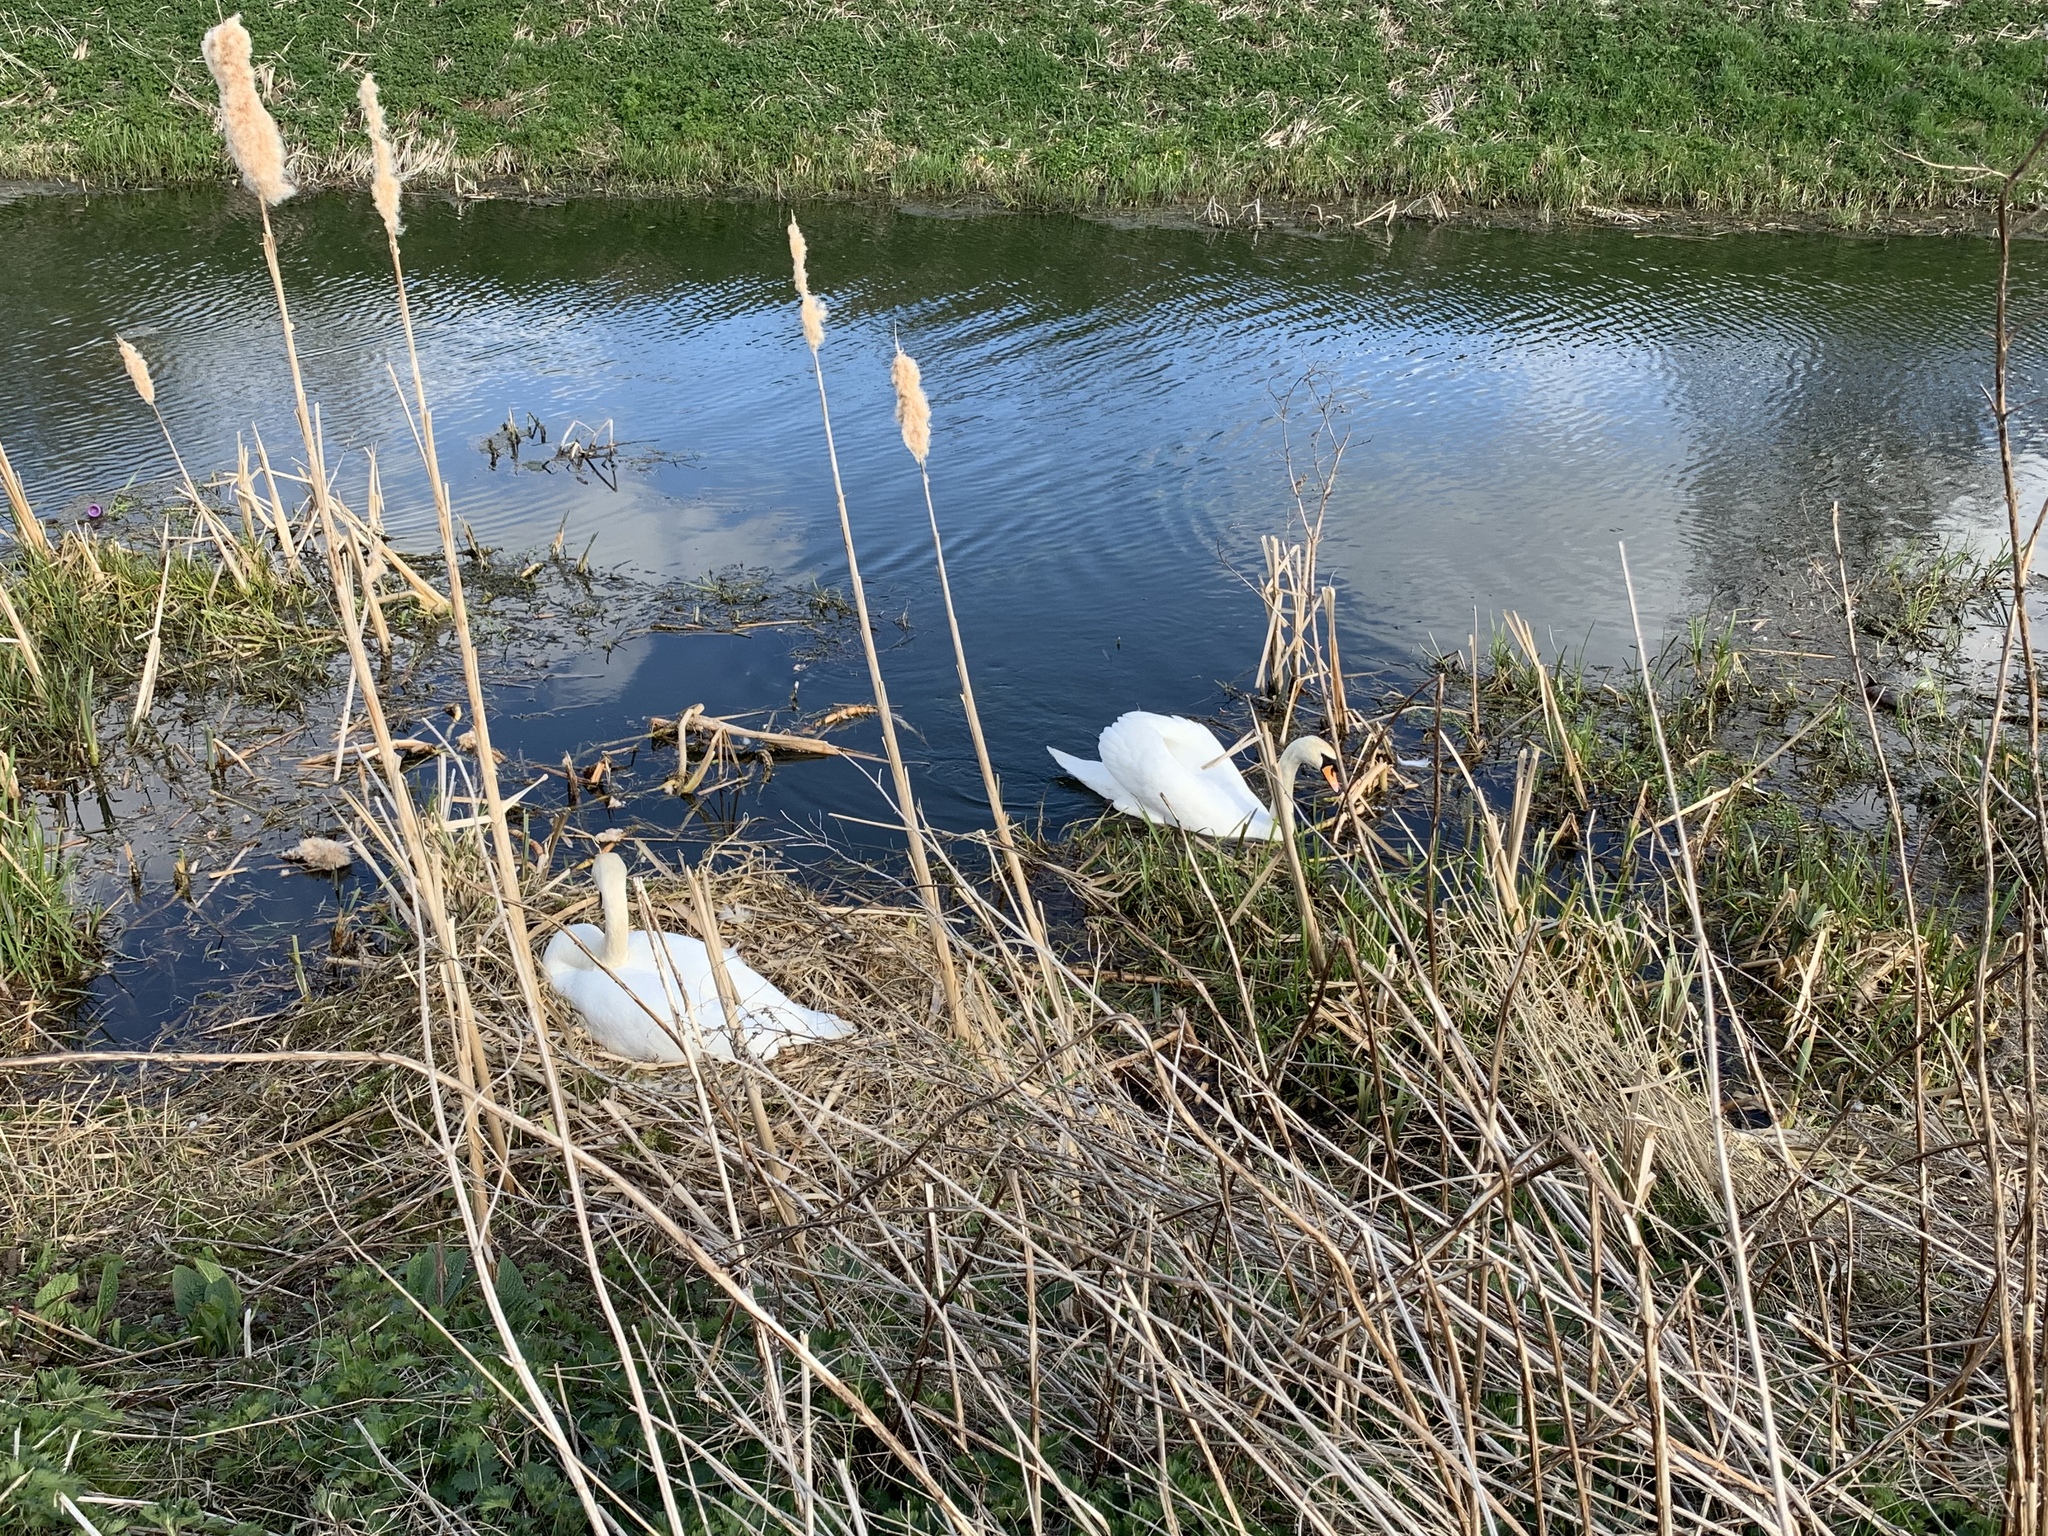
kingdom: Animalia
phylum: Chordata
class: Aves
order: Anseriformes
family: Anatidae
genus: Cygnus
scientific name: Cygnus olor
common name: Mute swan
